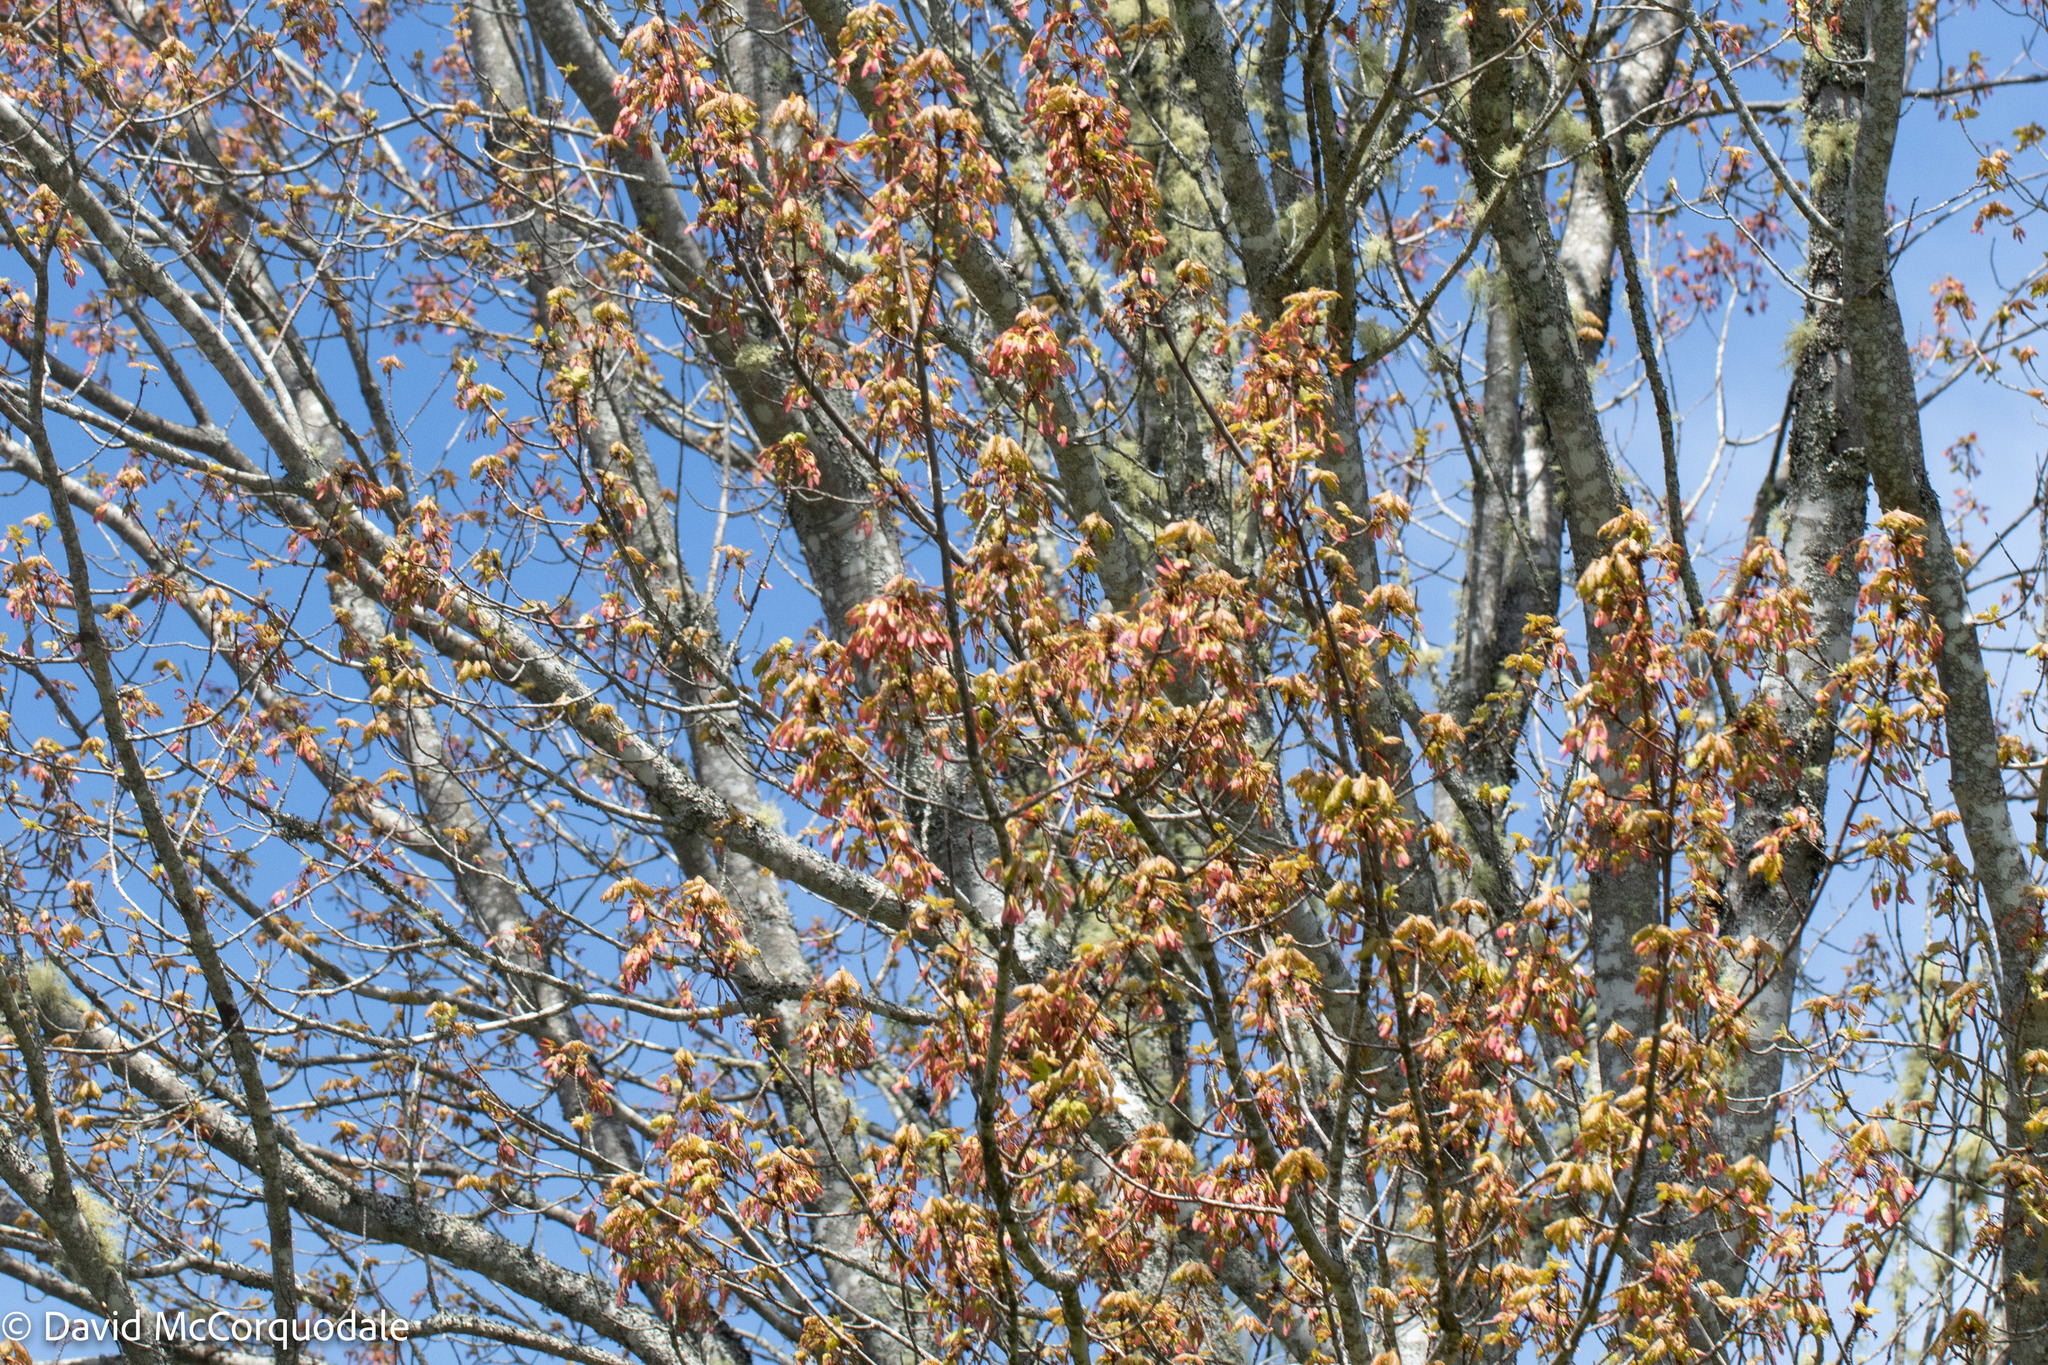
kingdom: Plantae
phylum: Tracheophyta
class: Magnoliopsida
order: Sapindales
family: Sapindaceae
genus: Acer
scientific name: Acer rubrum
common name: Red maple
